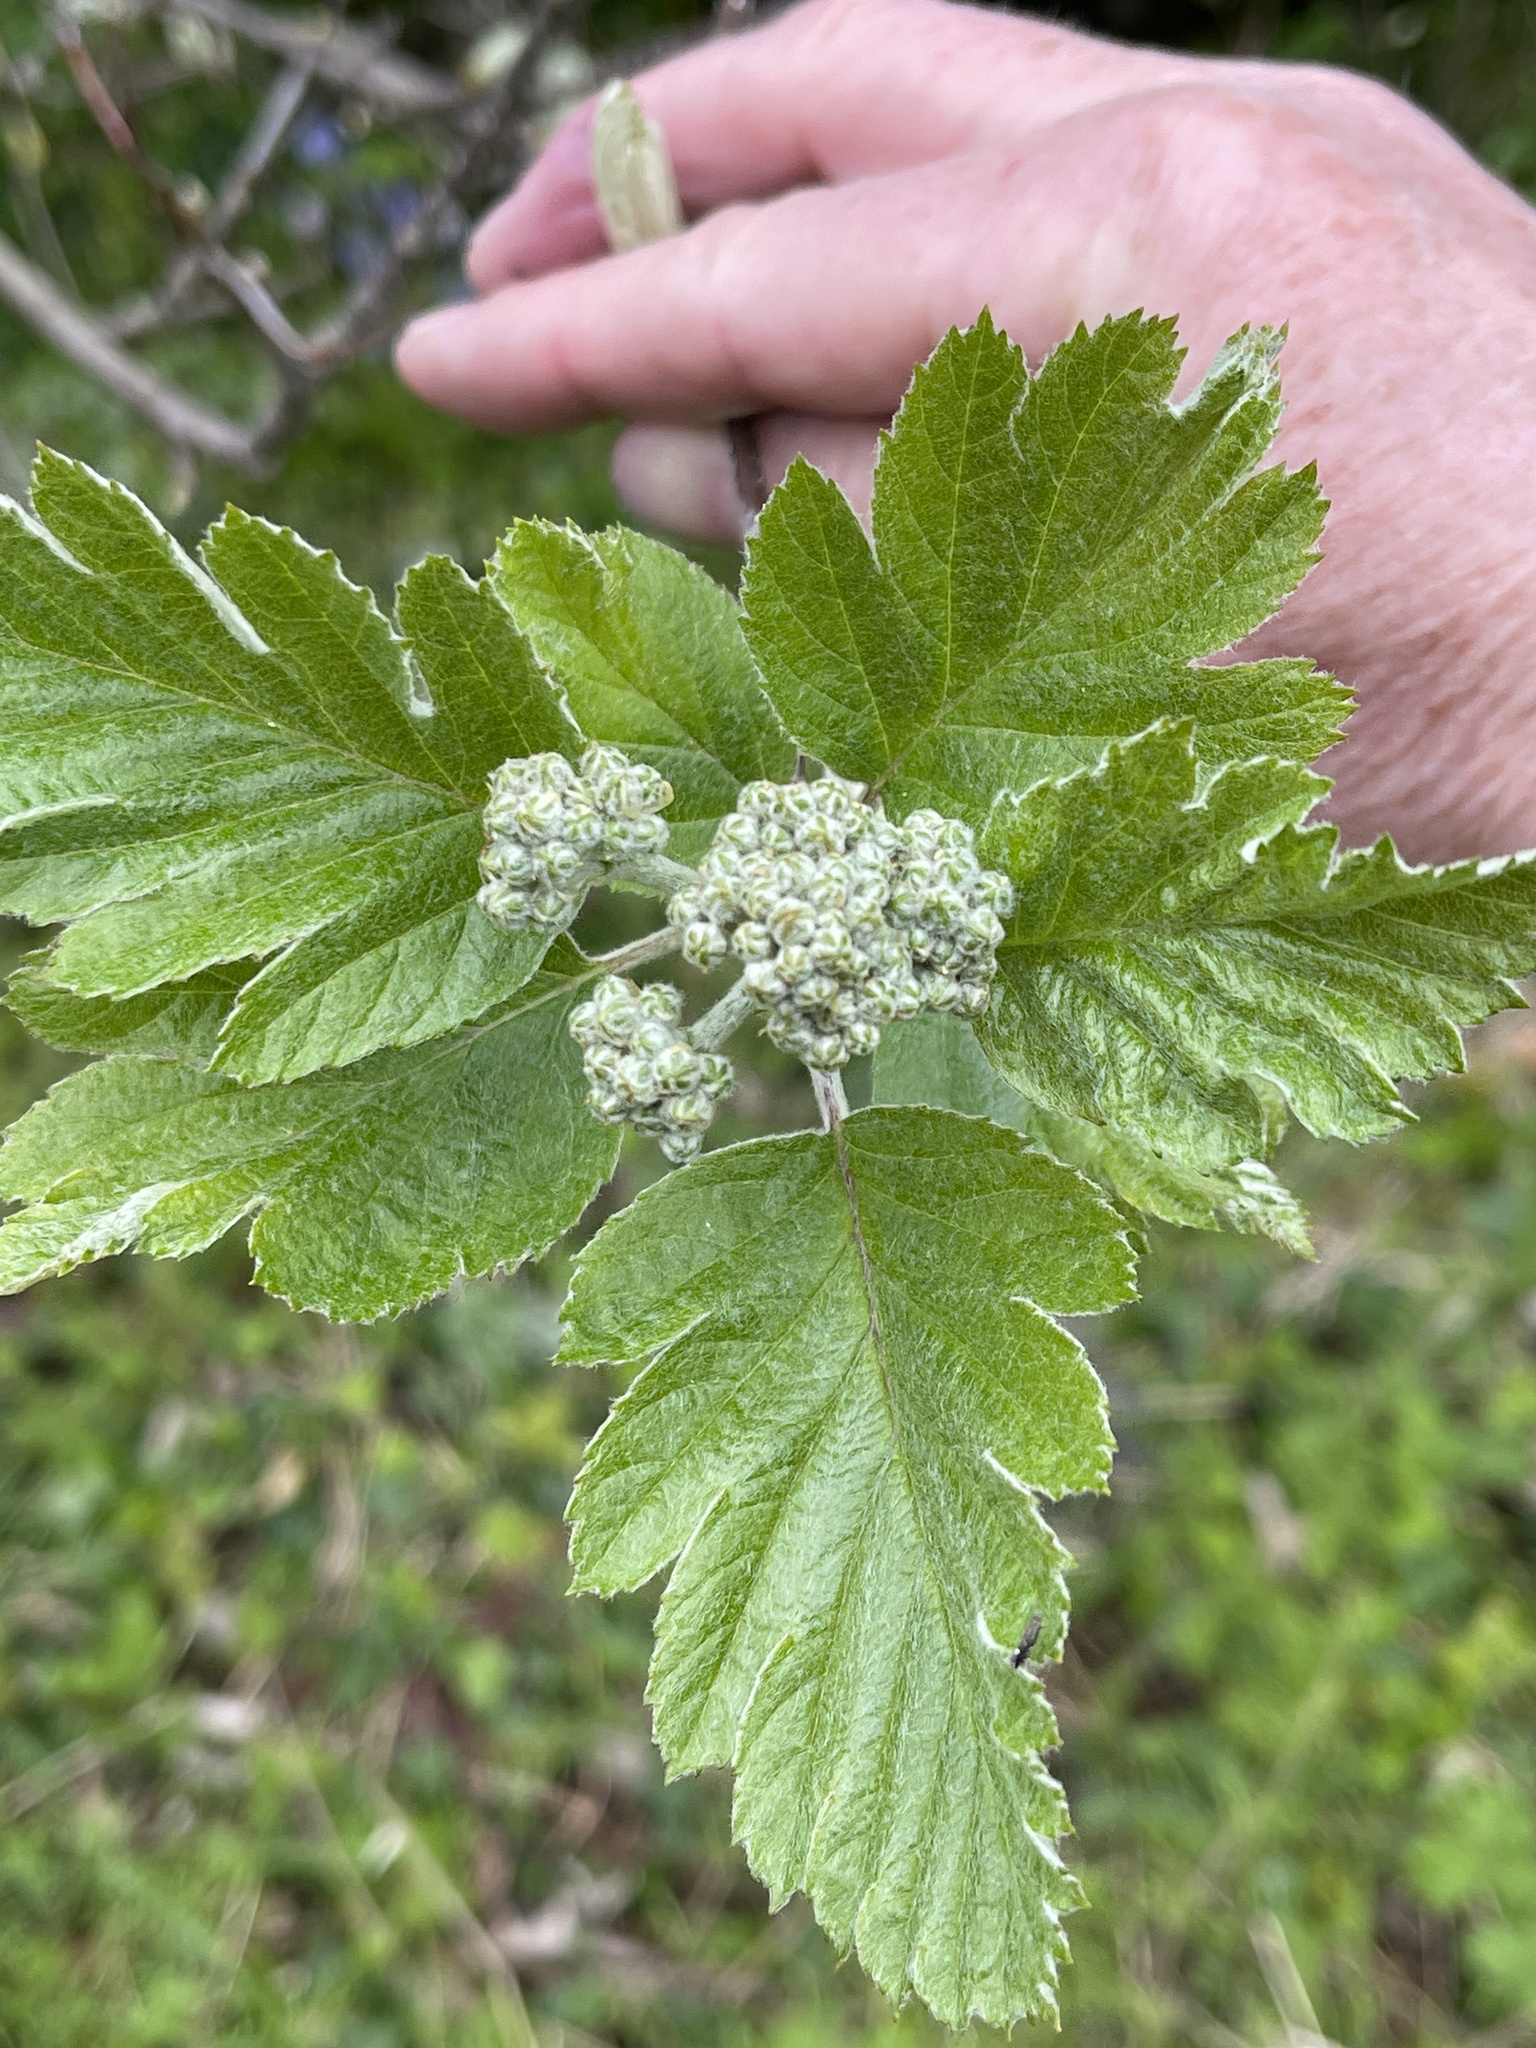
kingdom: Plantae
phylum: Tracheophyta
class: Magnoliopsida
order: Rosales
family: Rosaceae
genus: Scandosorbus
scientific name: Scandosorbus intermedia
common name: Swedish whitebeam
